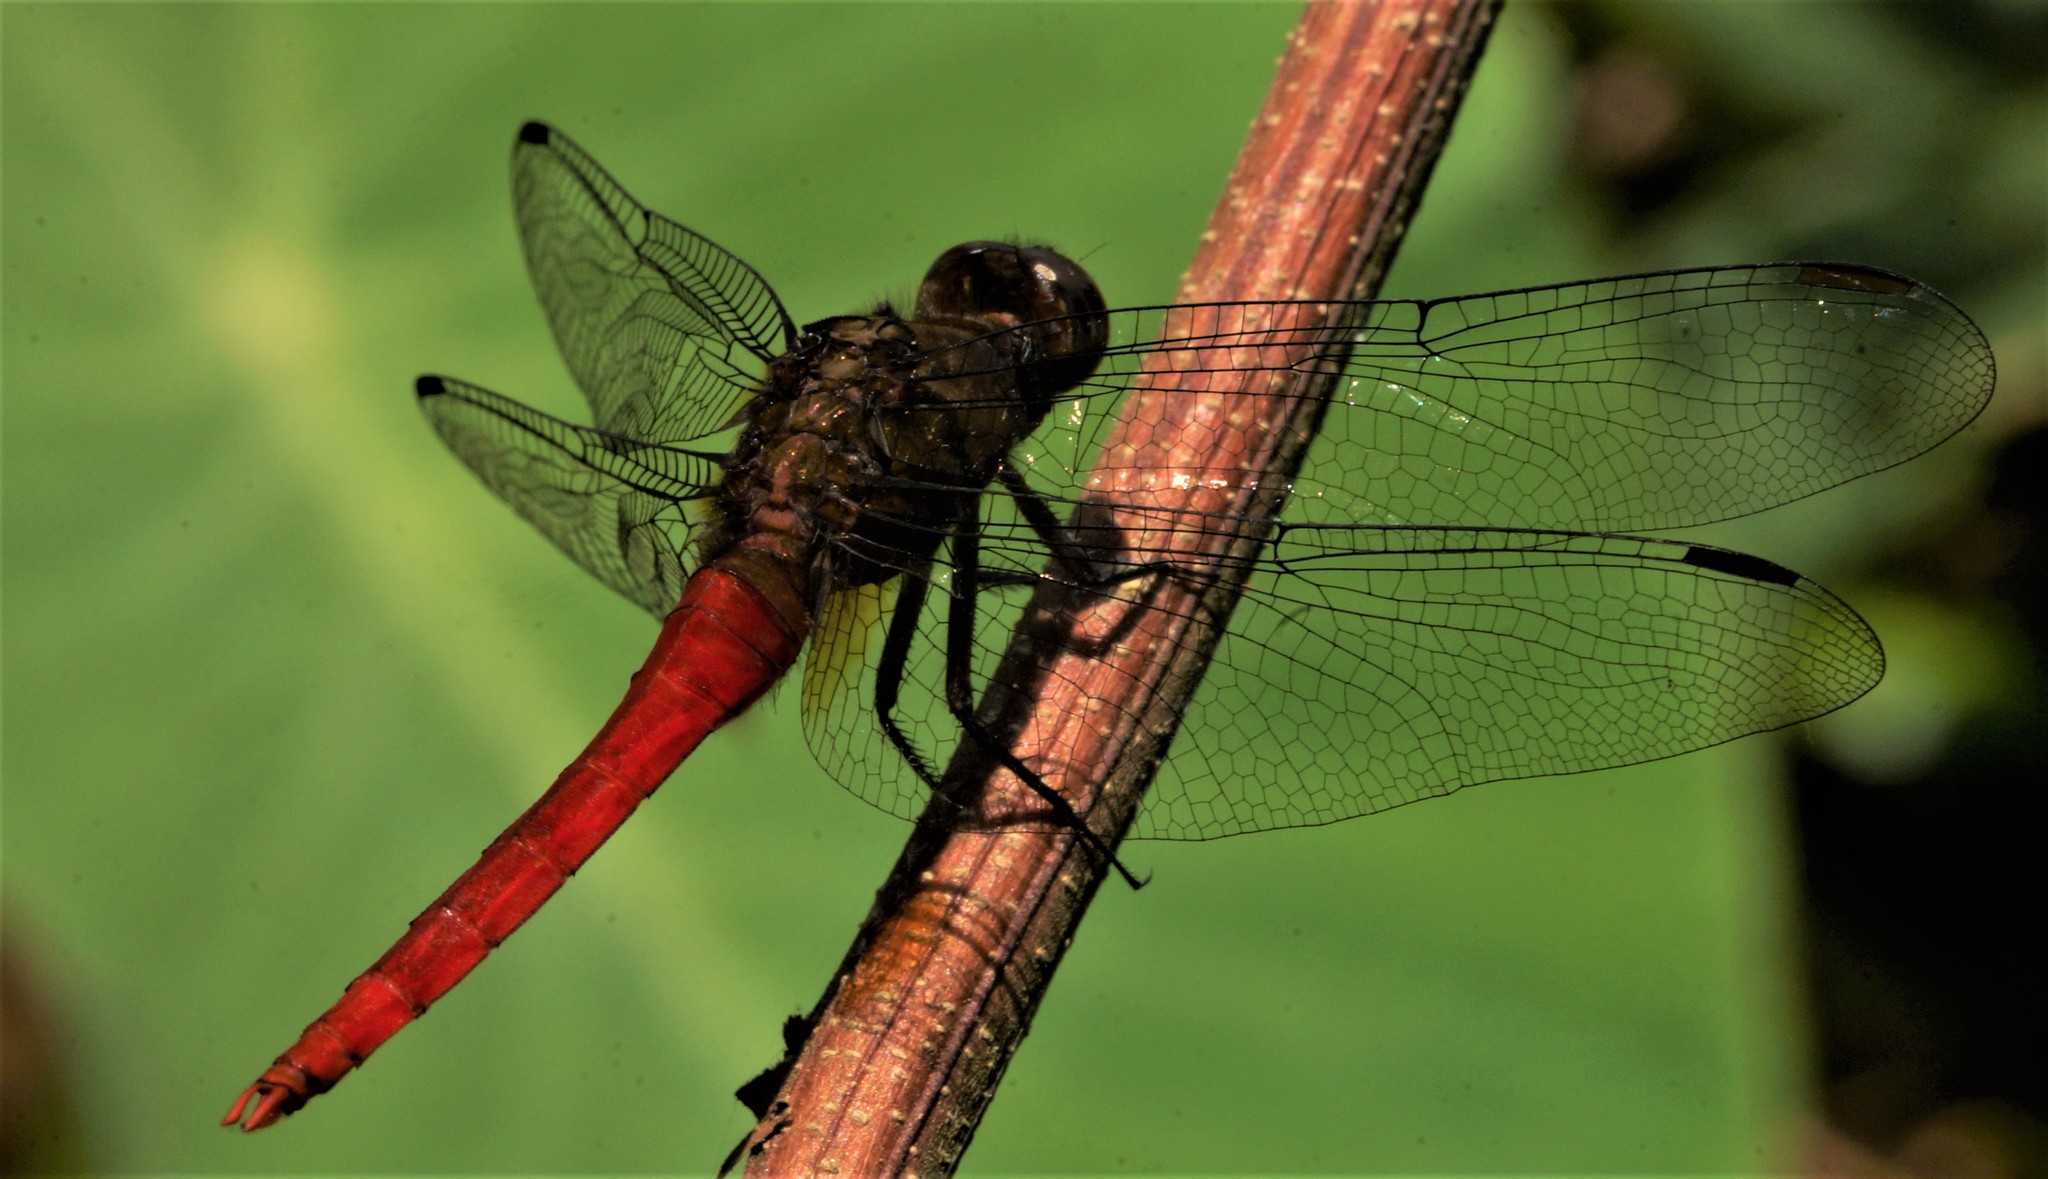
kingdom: Animalia
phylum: Arthropoda
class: Insecta
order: Odonata
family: Libellulidae
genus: Orthetrum
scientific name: Orthetrum chrysis
